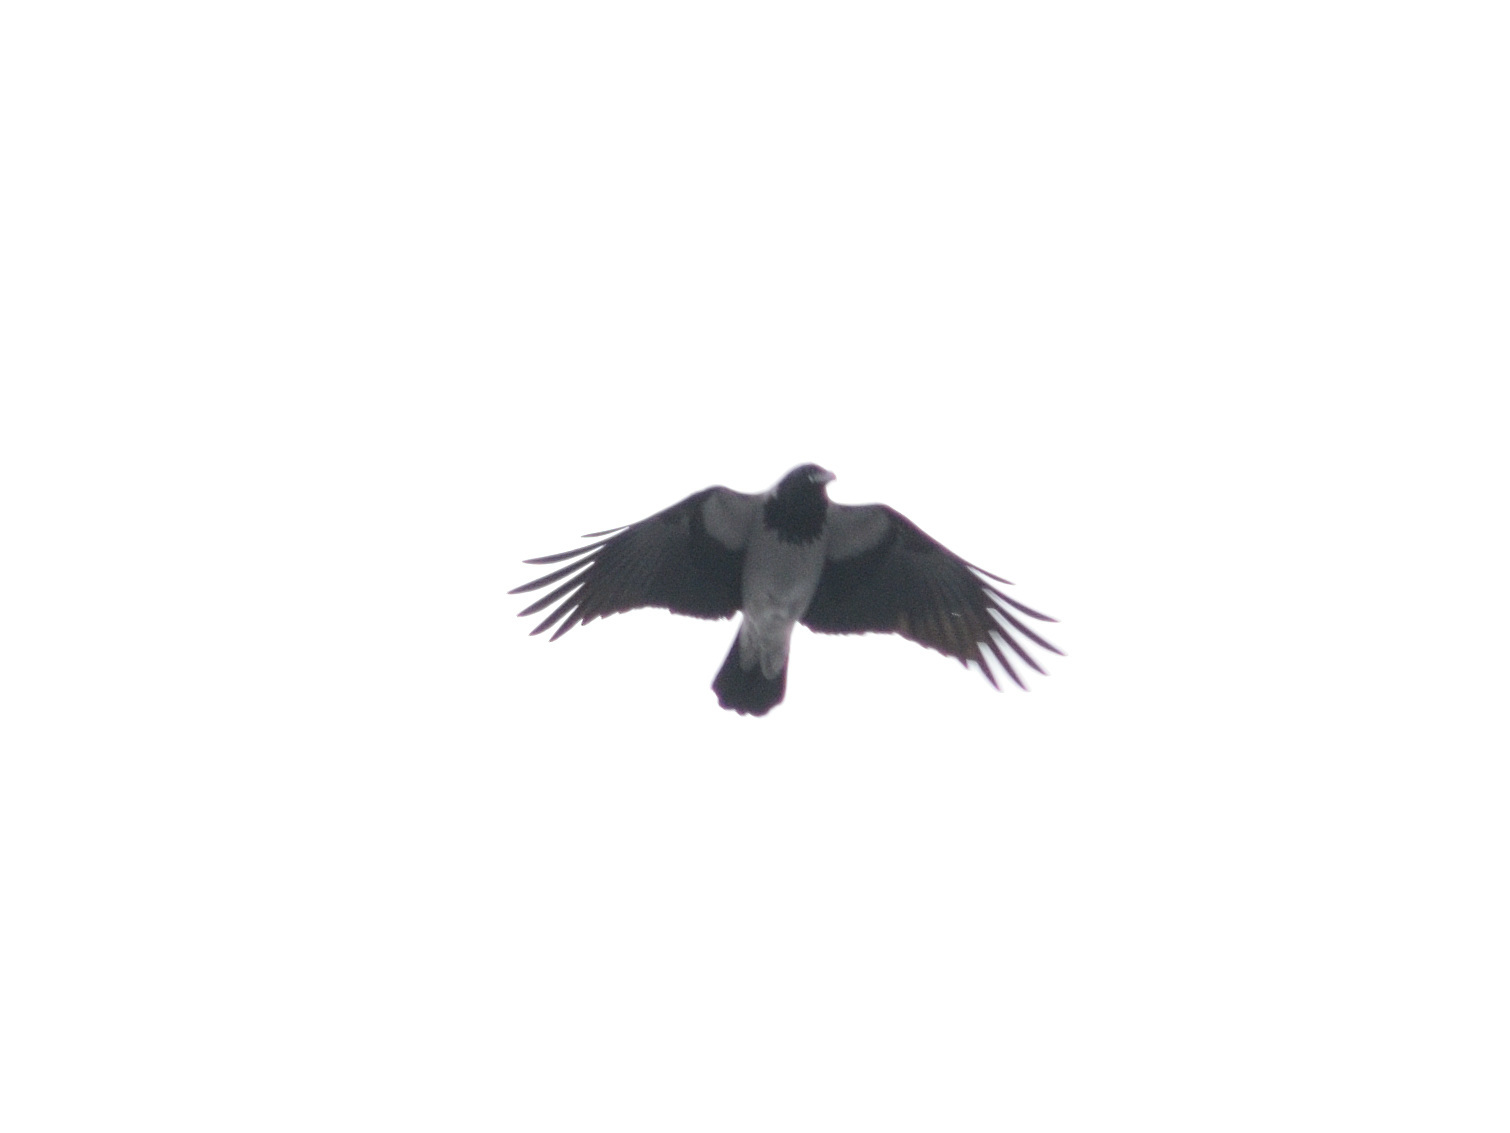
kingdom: Animalia
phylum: Chordata
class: Aves
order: Passeriformes
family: Corvidae
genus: Corvus
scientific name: Corvus cornix
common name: Hooded crow
